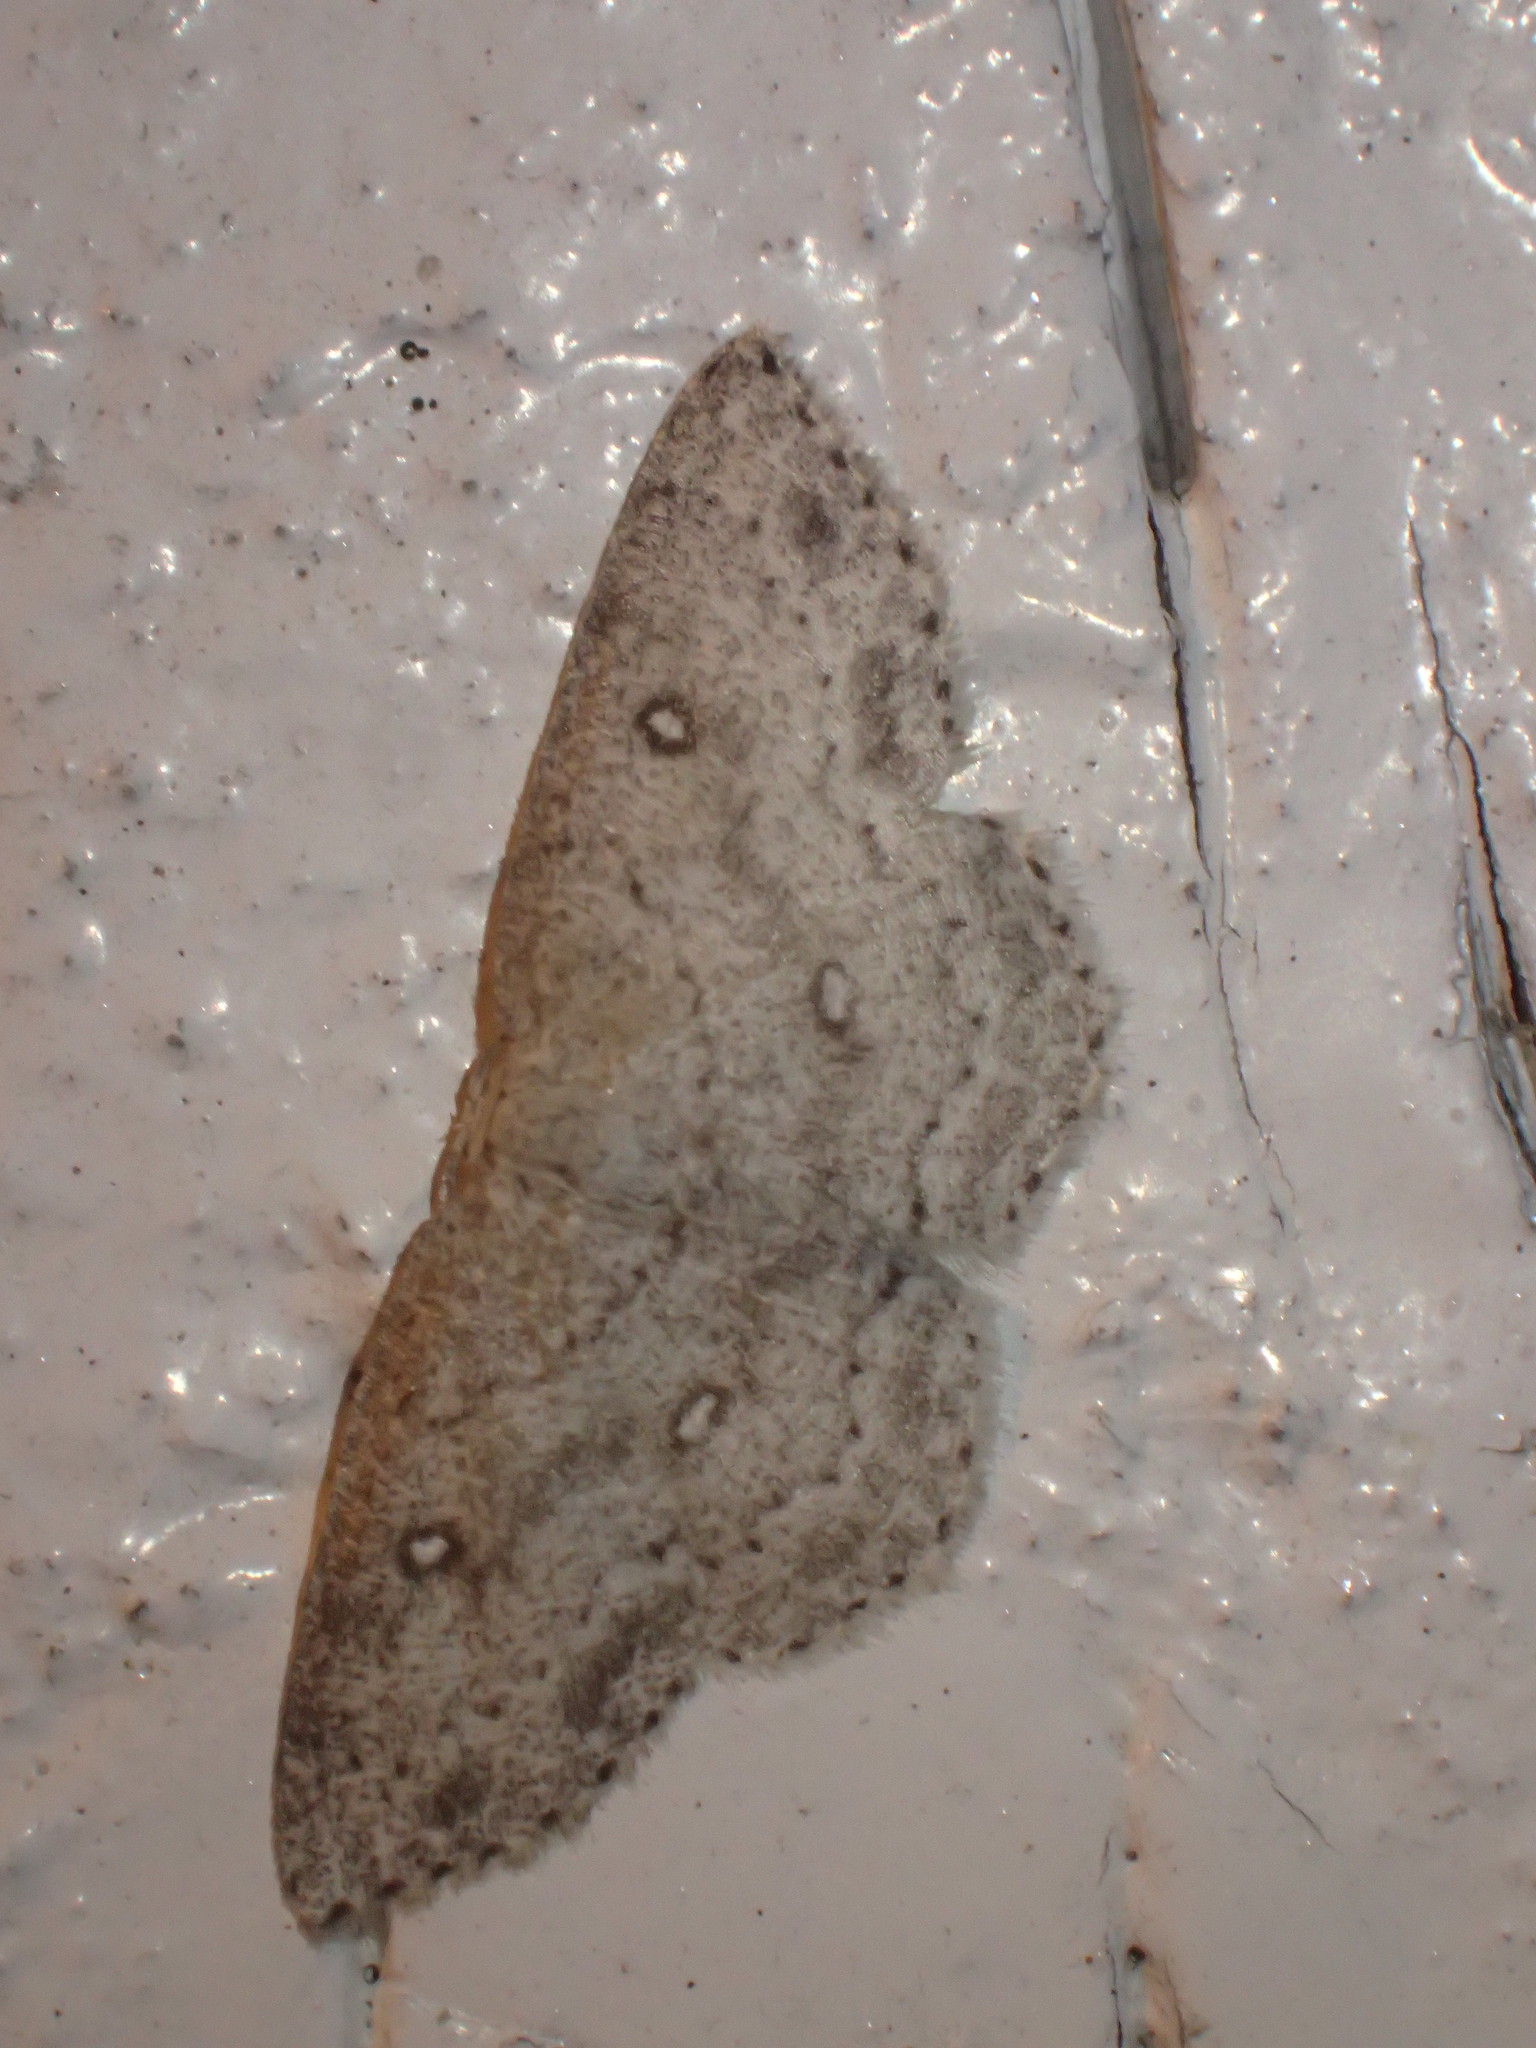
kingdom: Animalia
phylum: Arthropoda
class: Insecta
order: Lepidoptera
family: Geometridae
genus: Cyclophora
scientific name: Cyclophora pendulinaria
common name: Sweet fern geometer
